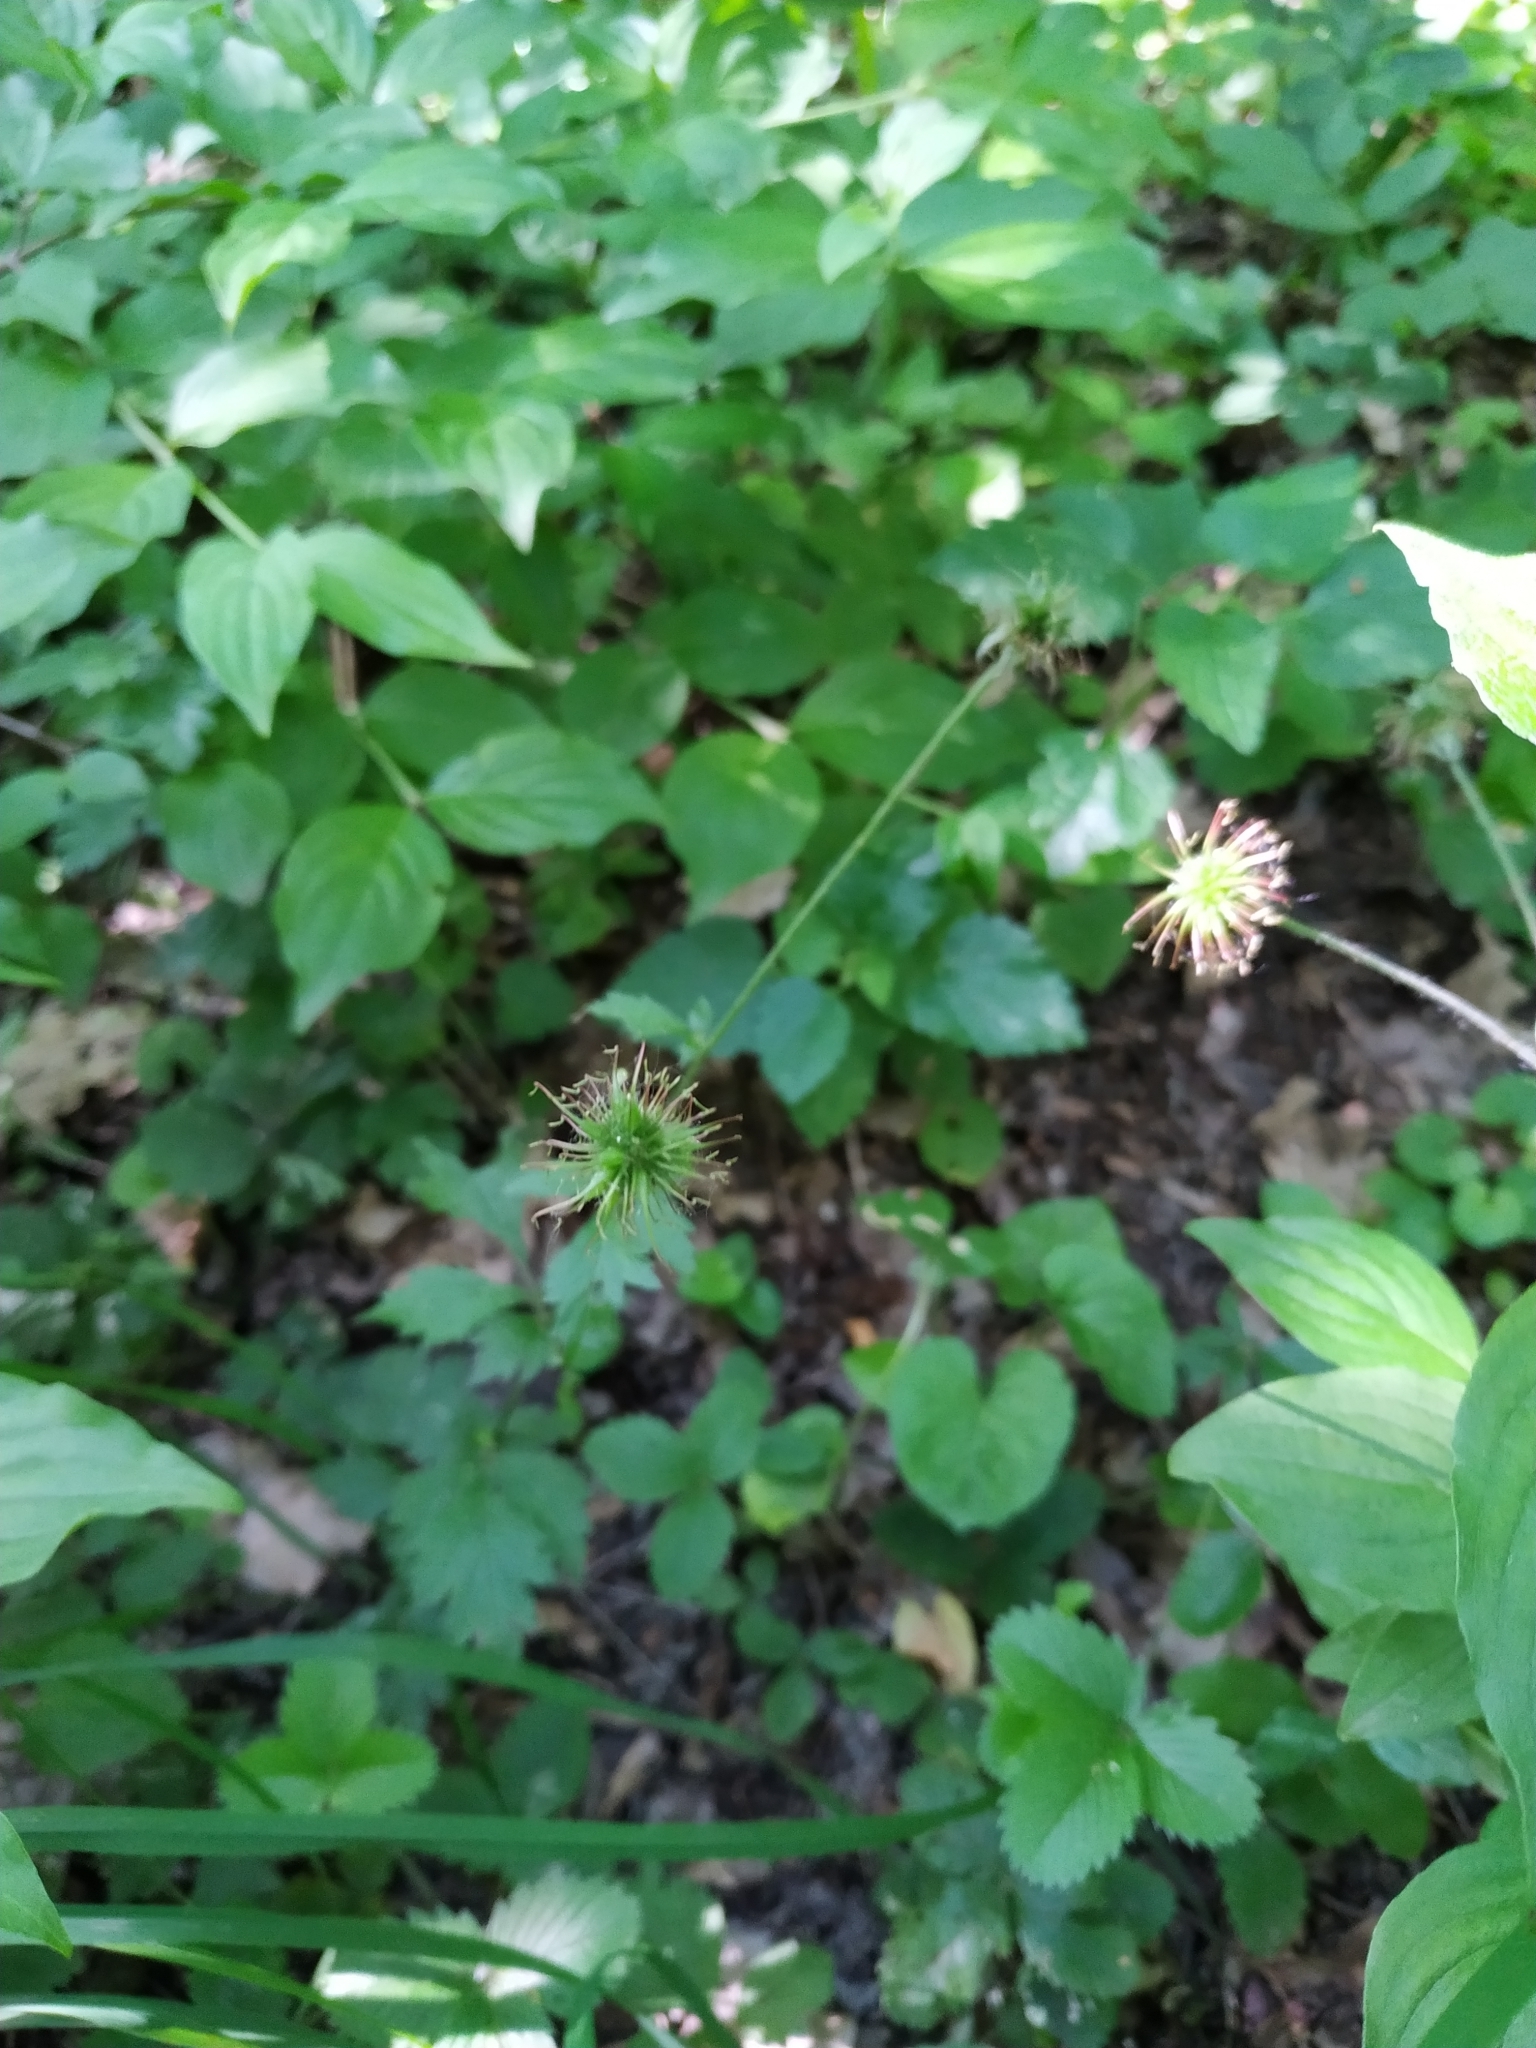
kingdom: Plantae
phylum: Tracheophyta
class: Magnoliopsida
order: Rosales
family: Rosaceae
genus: Geum
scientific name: Geum urbanum
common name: Wood avens
